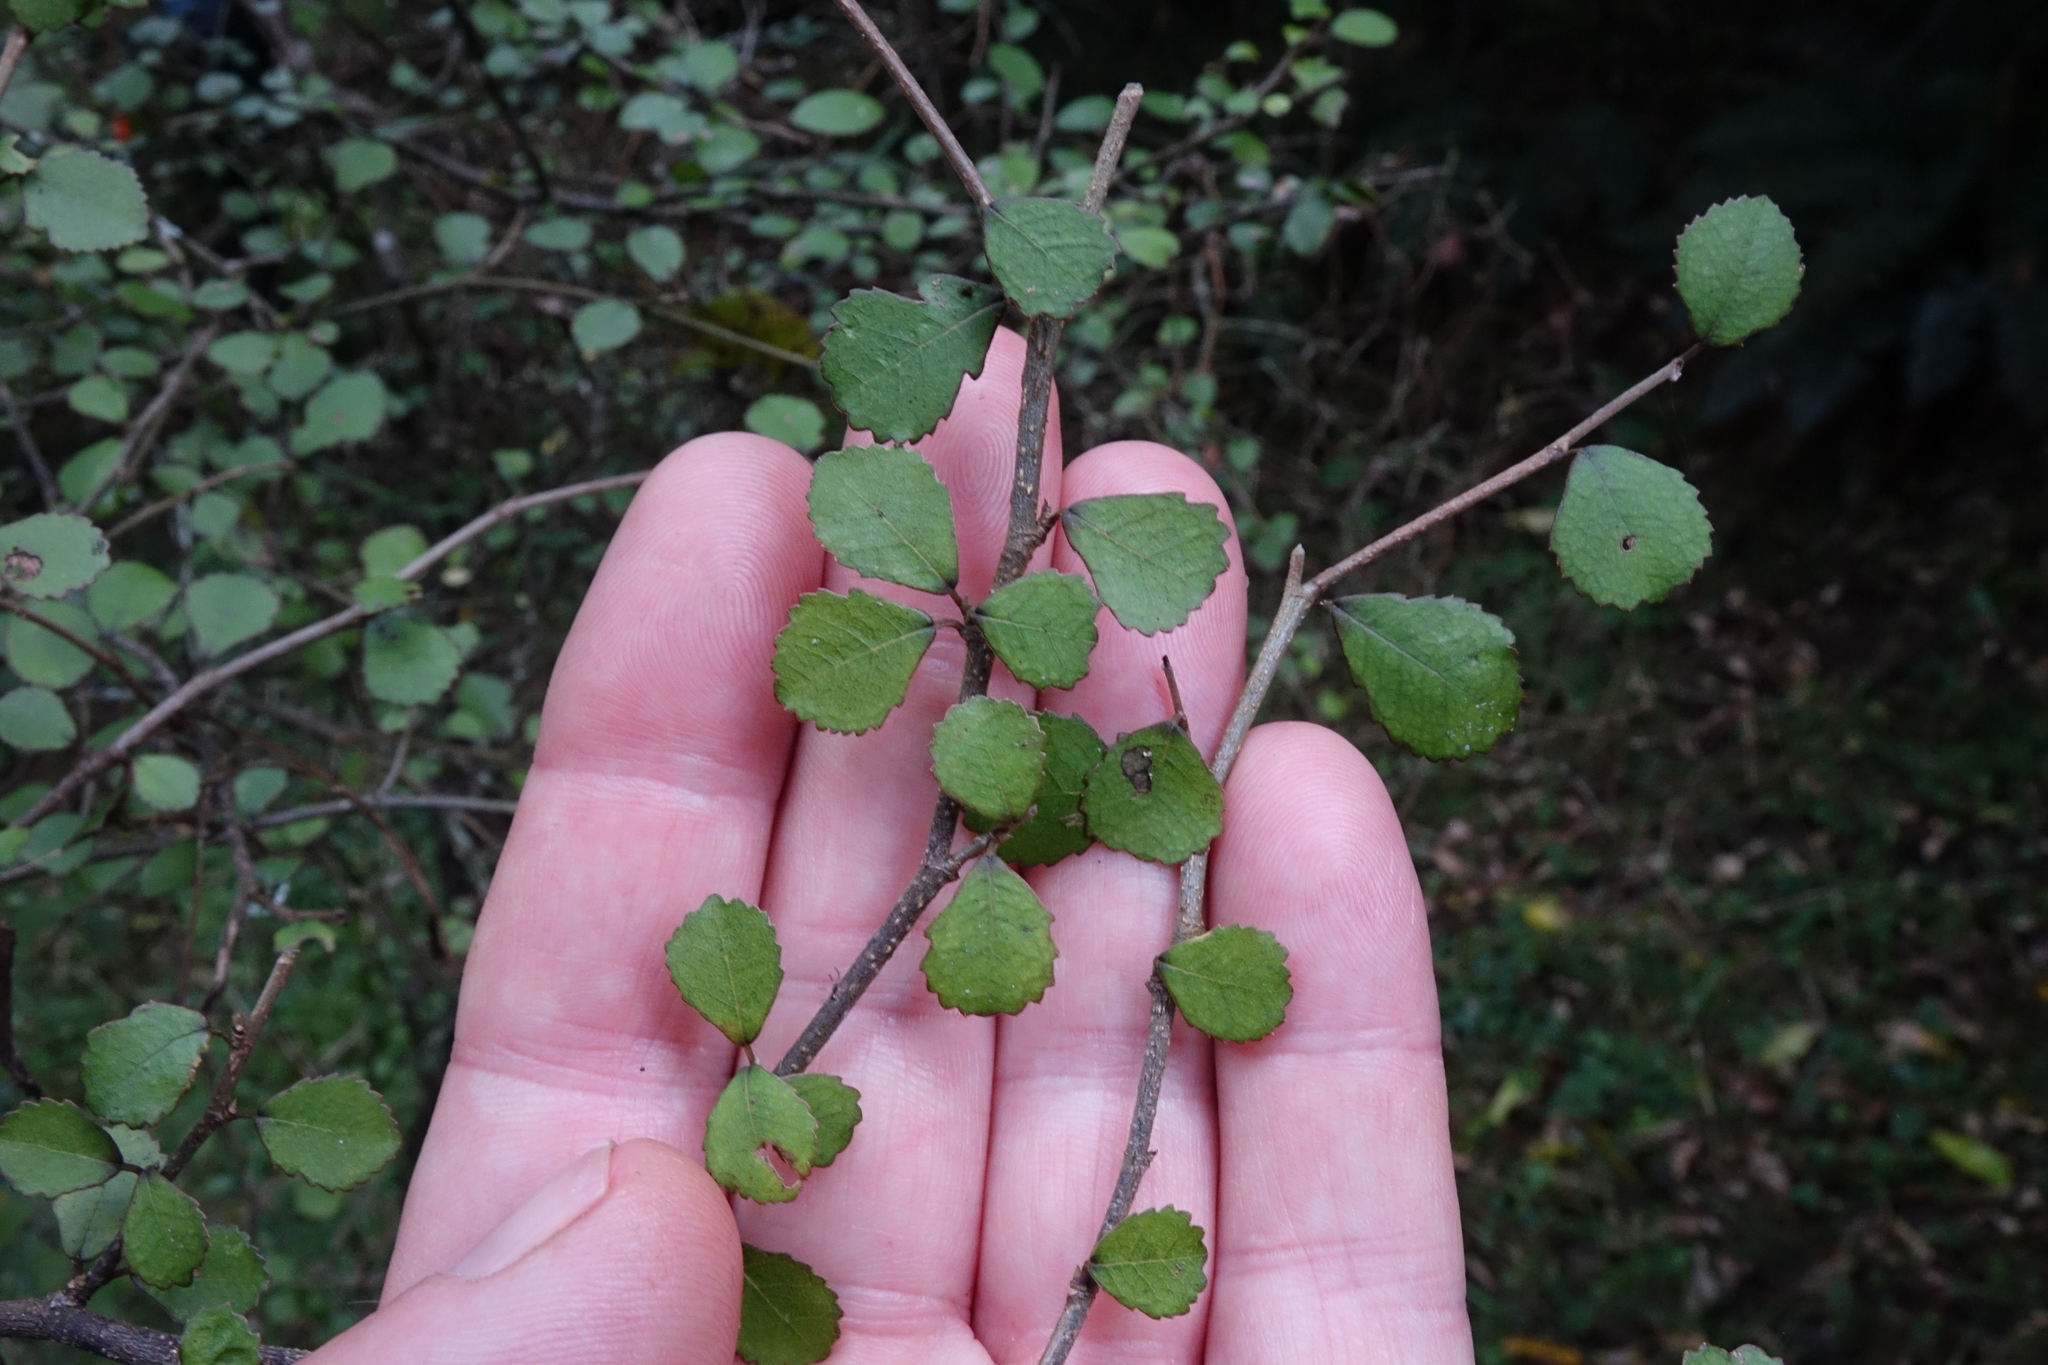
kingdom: Plantae
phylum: Tracheophyta
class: Magnoliopsida
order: Rosales
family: Moraceae
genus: Paratrophis
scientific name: Paratrophis microphylla
